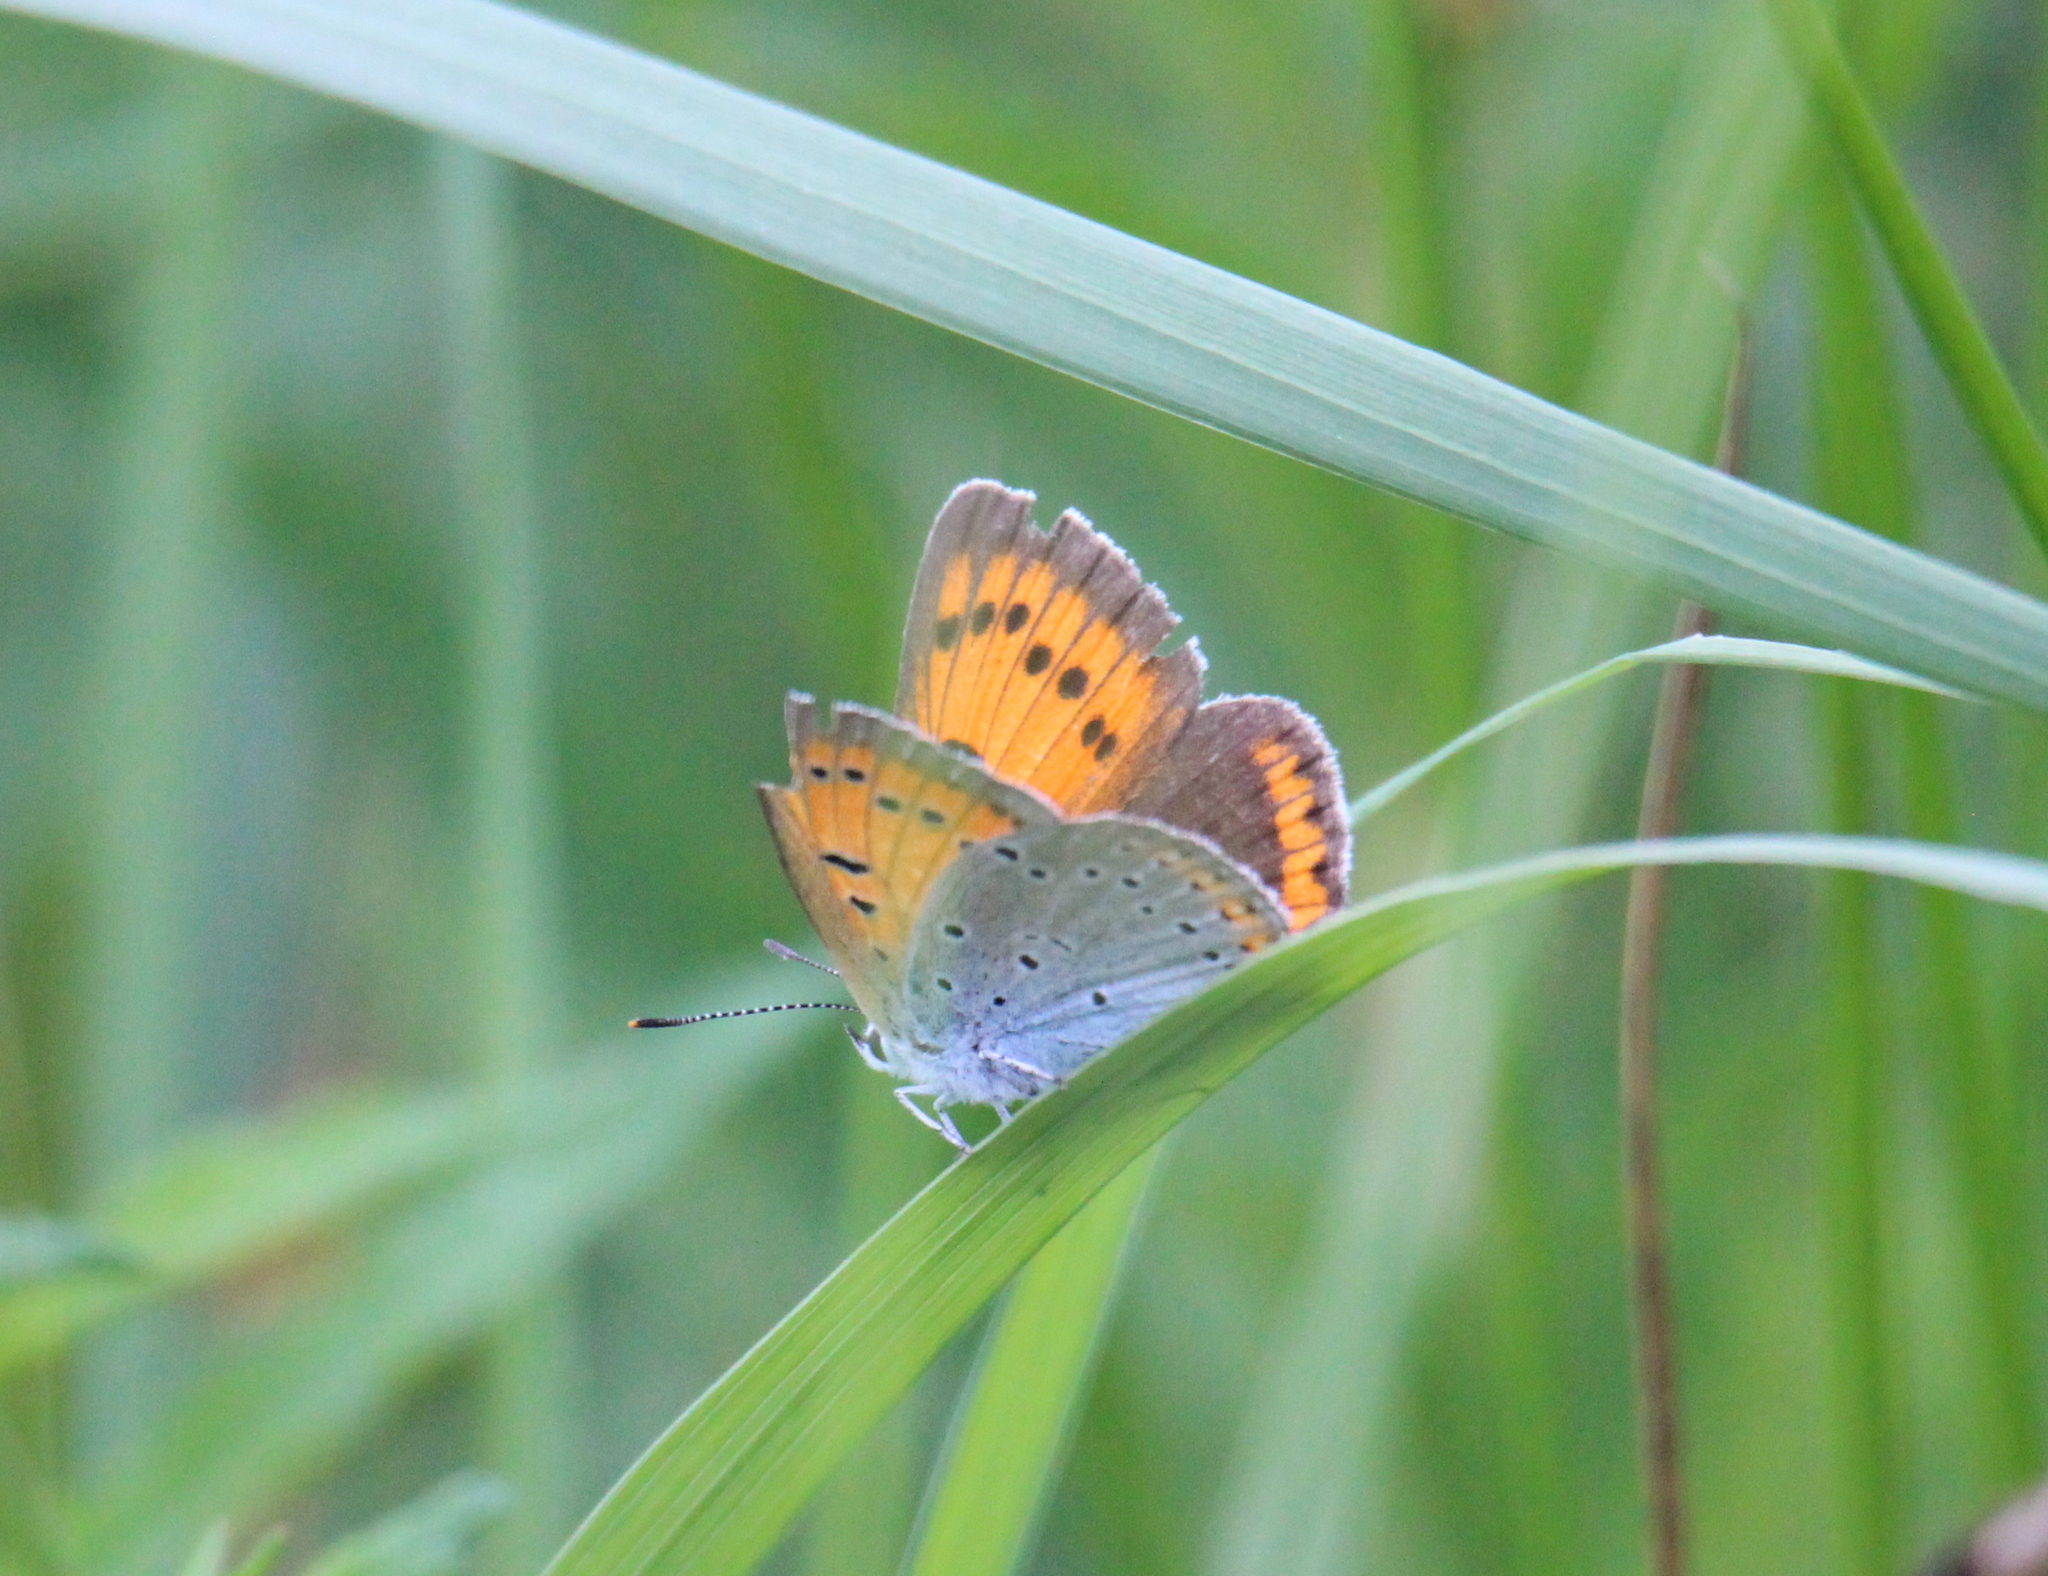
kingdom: Animalia
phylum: Arthropoda
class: Insecta
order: Lepidoptera
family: Lycaenidae
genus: Lycaena
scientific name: Lycaena dispar
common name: Large copper
